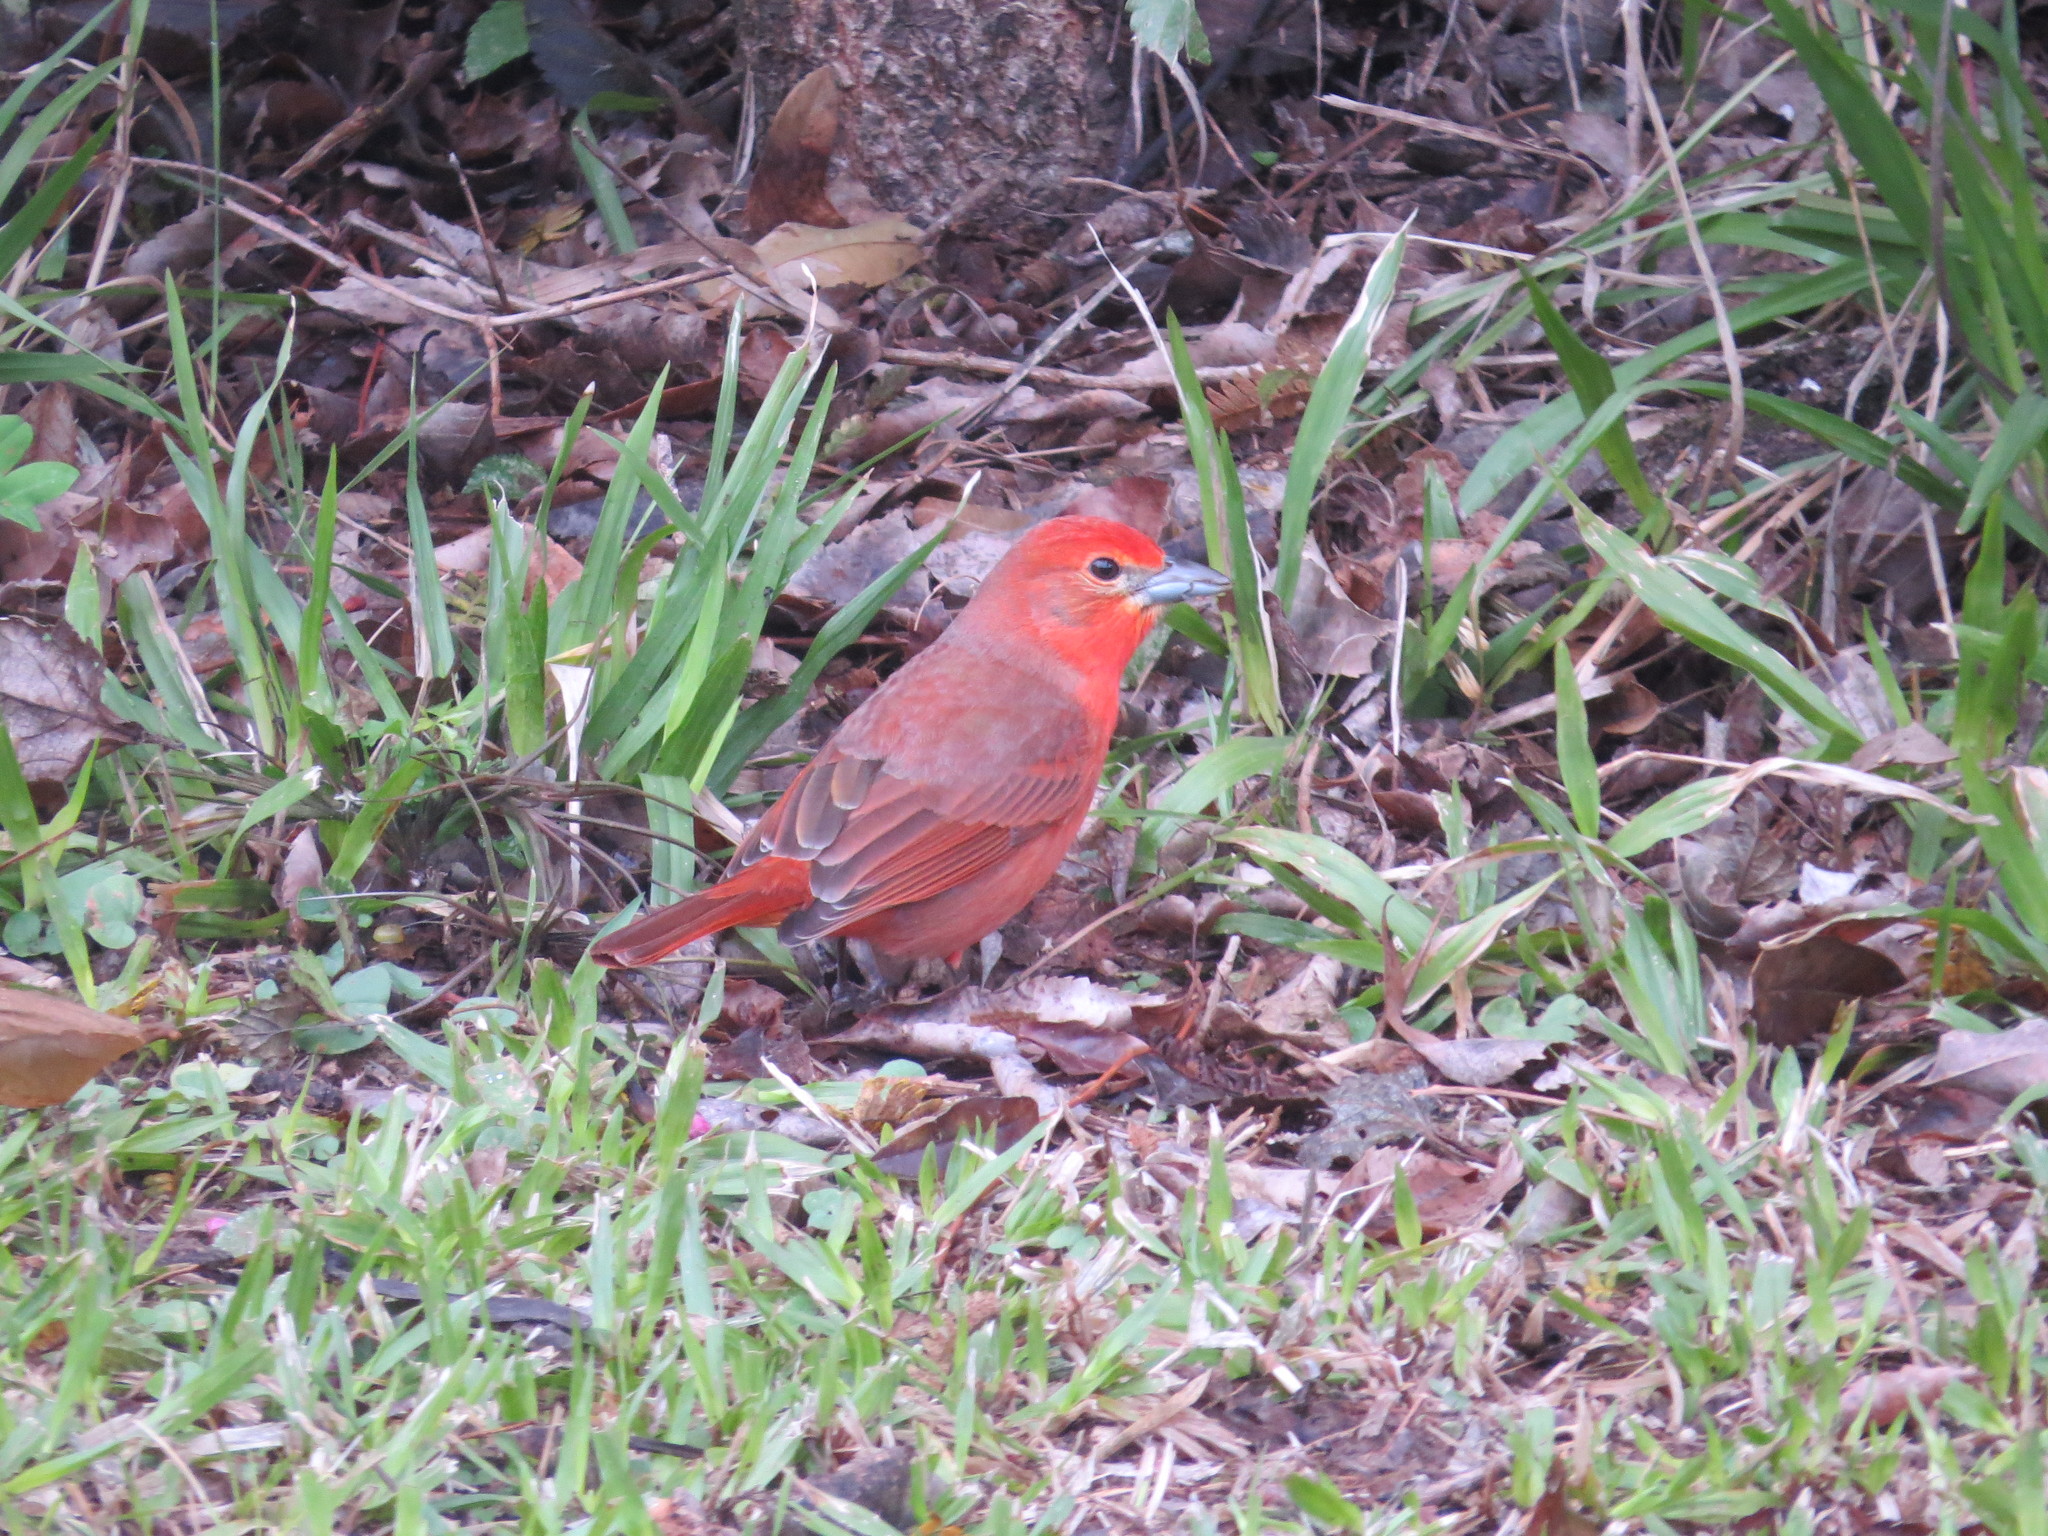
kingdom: Animalia
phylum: Chordata
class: Aves
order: Passeriformes
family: Cardinalidae
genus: Piranga
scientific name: Piranga flava
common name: Red tanager
